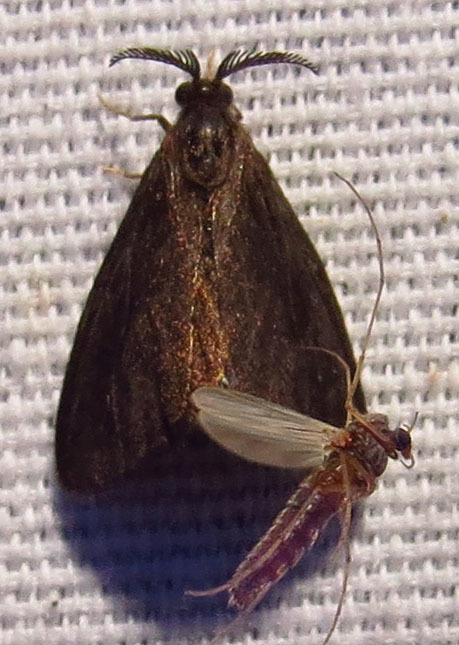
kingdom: Animalia
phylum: Arthropoda
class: Insecta
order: Lepidoptera
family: Psychidae
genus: Cryptothelea
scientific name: Cryptothelea gloverii
